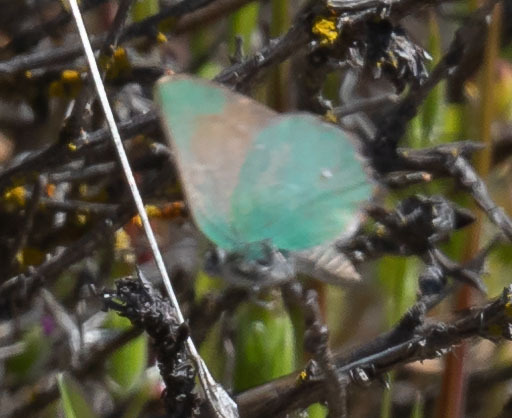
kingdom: Animalia
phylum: Arthropoda
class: Insecta
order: Lepidoptera
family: Lycaenidae
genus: Callophrys
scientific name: Callophrys dumetorum
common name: Bramble hairstreak
